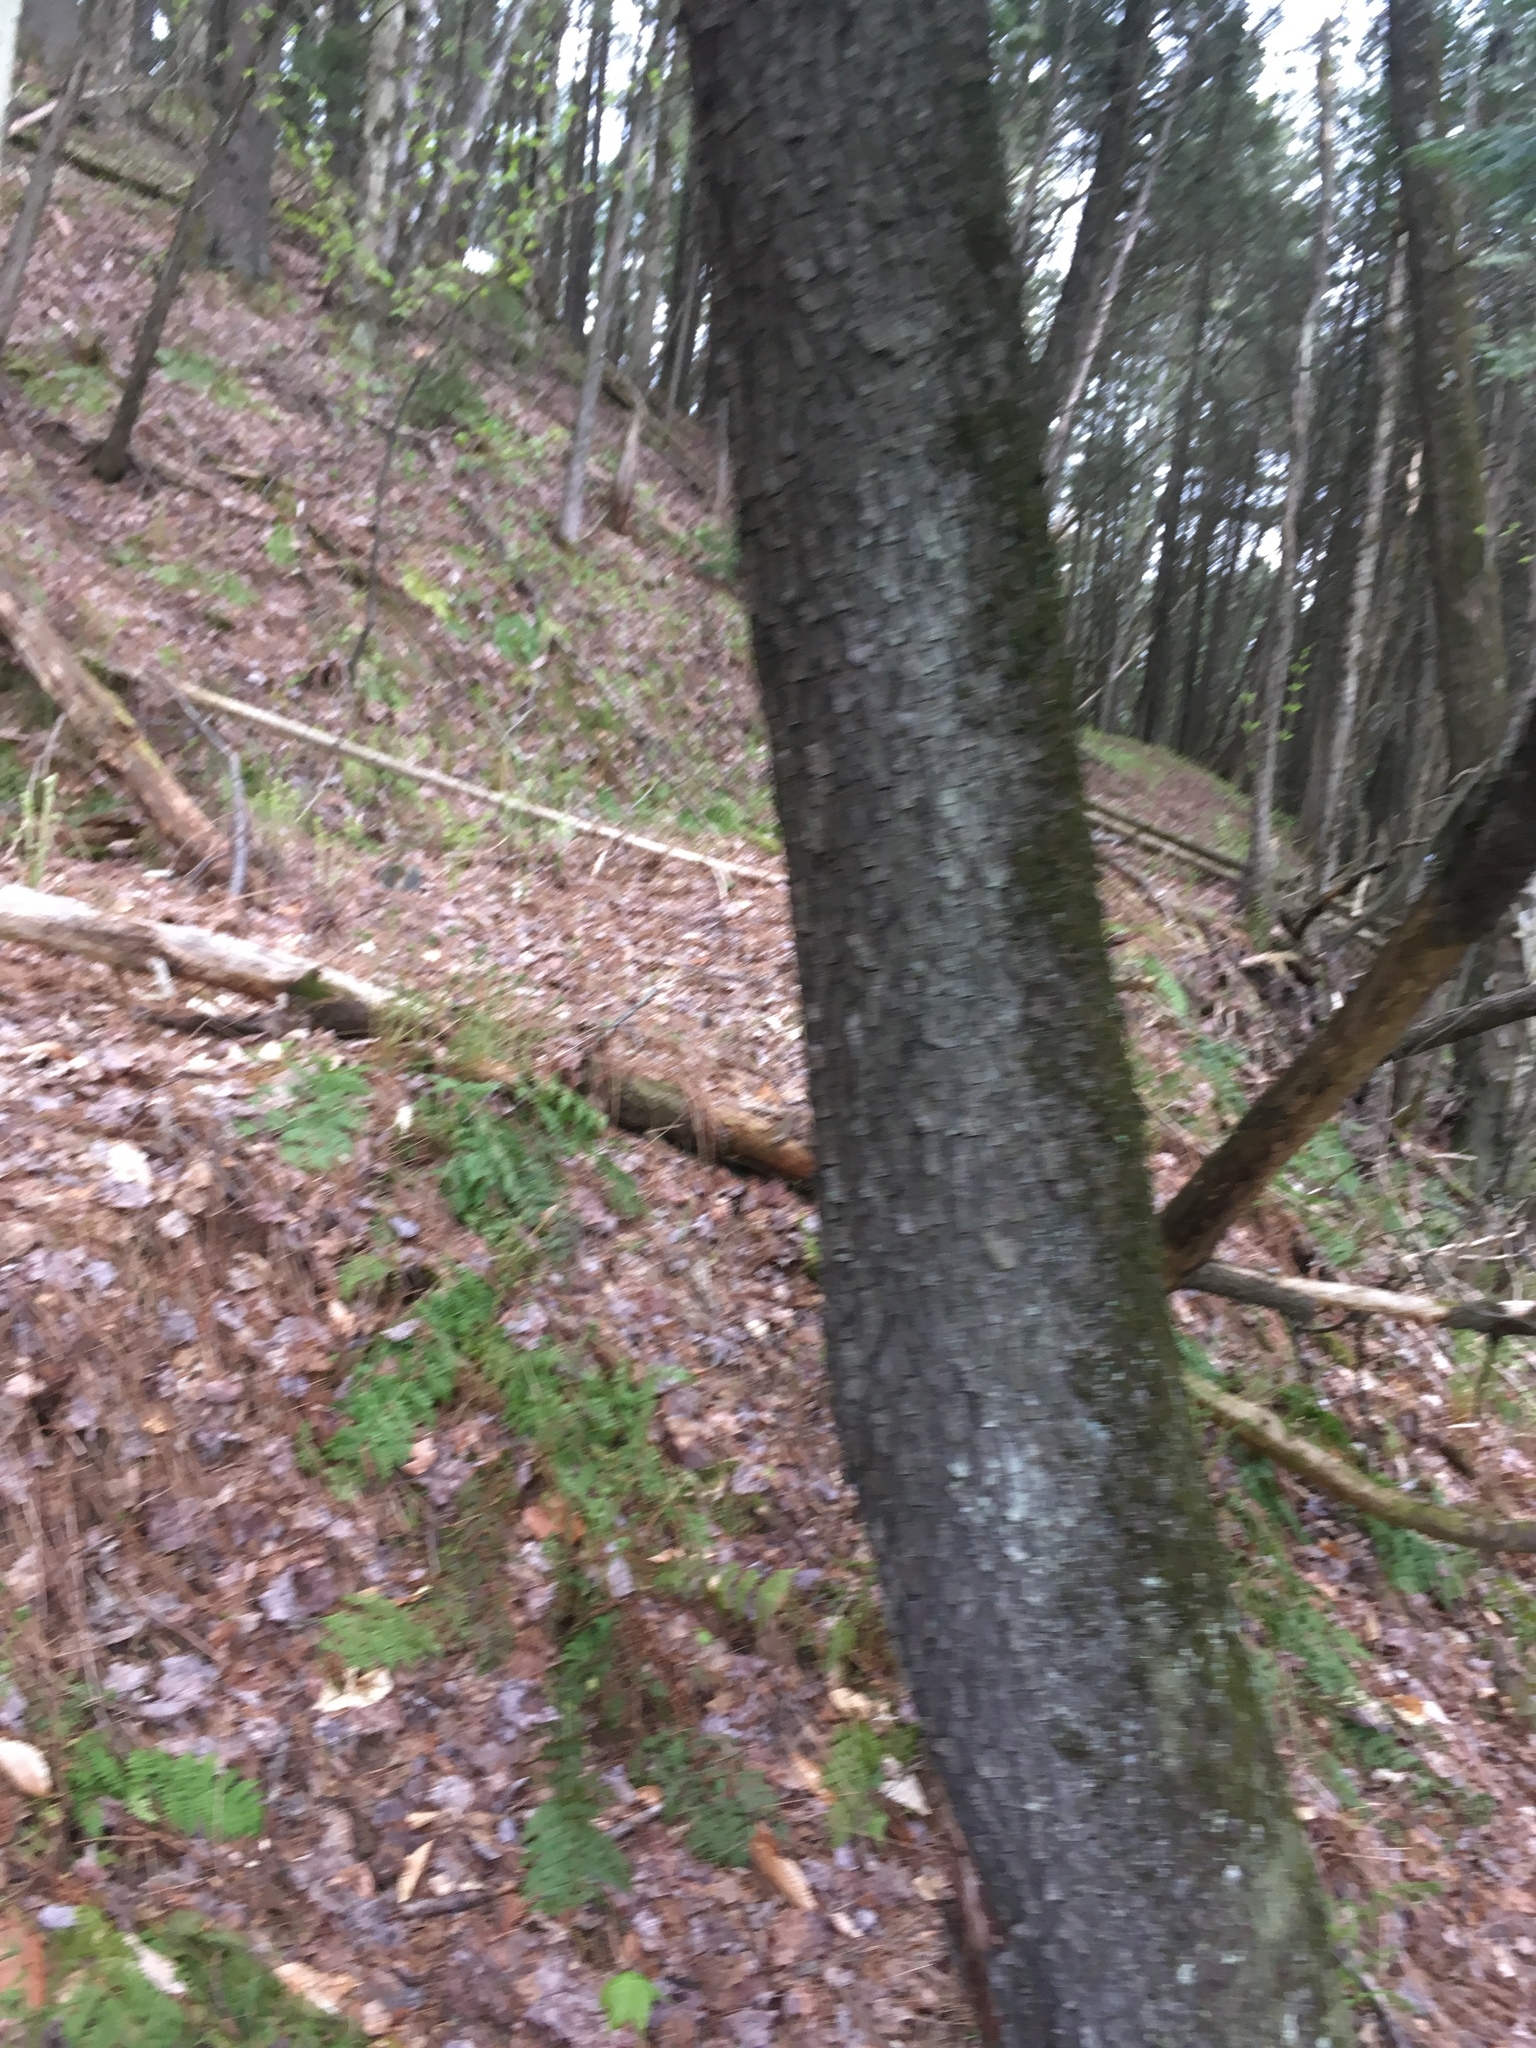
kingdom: Plantae
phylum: Tracheophyta
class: Magnoliopsida
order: Rosales
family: Rosaceae
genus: Prunus
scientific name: Prunus serotina
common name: Black cherry
